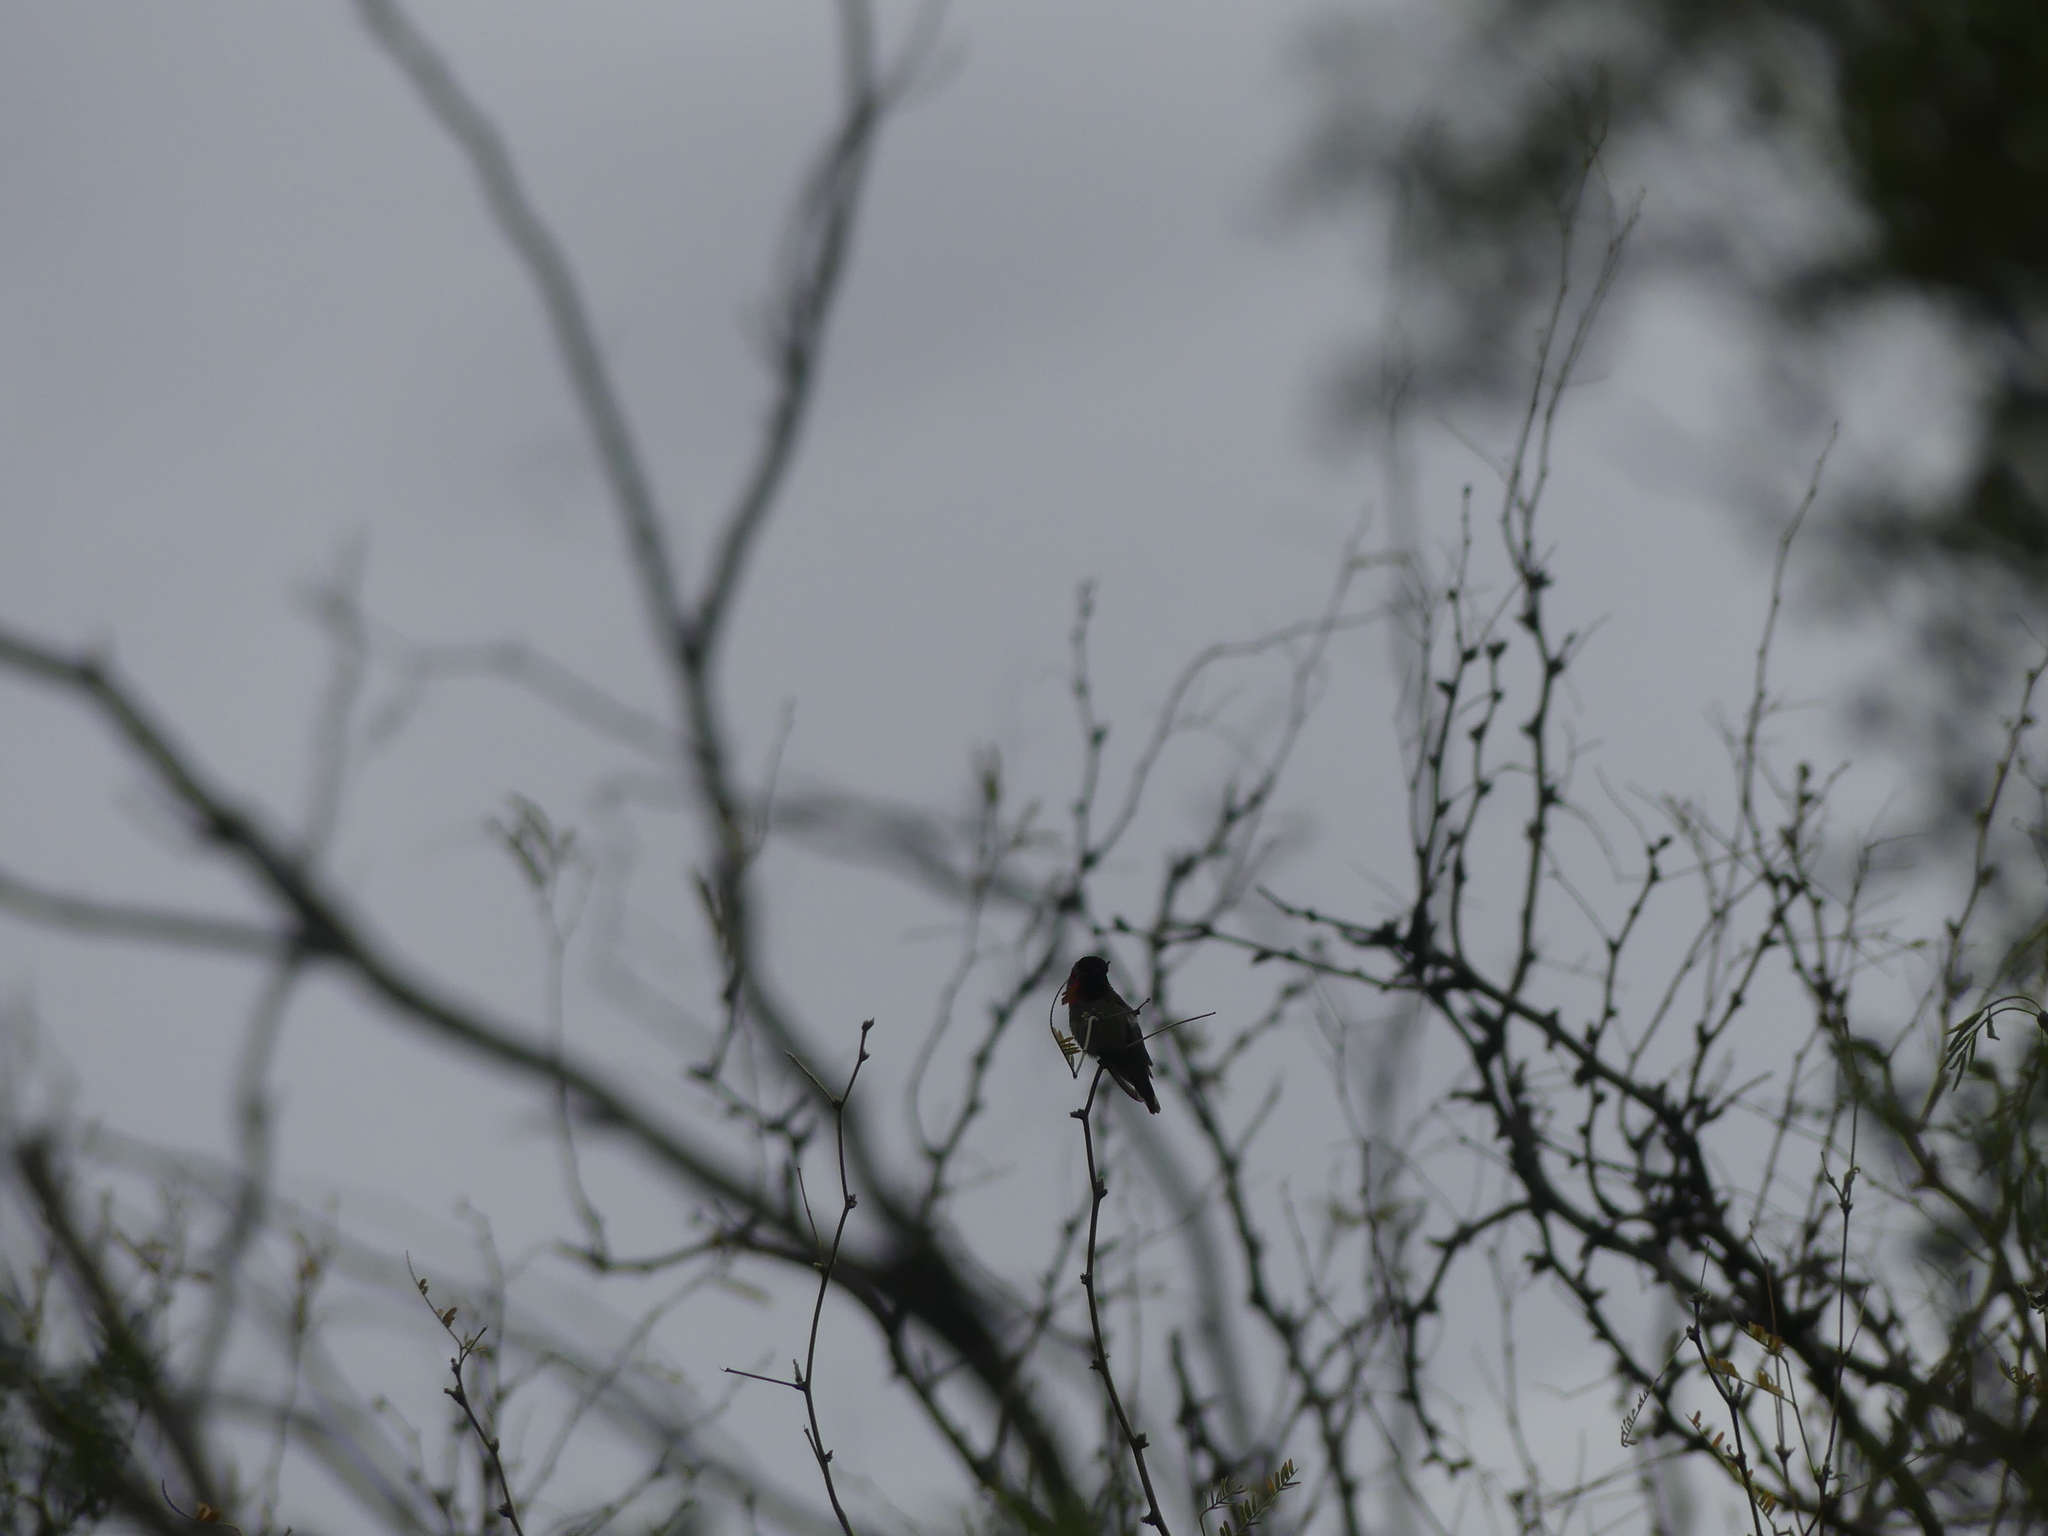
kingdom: Animalia
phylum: Chordata
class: Aves
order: Apodiformes
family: Trochilidae
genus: Calypte
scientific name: Calypte anna
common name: Anna's hummingbird
